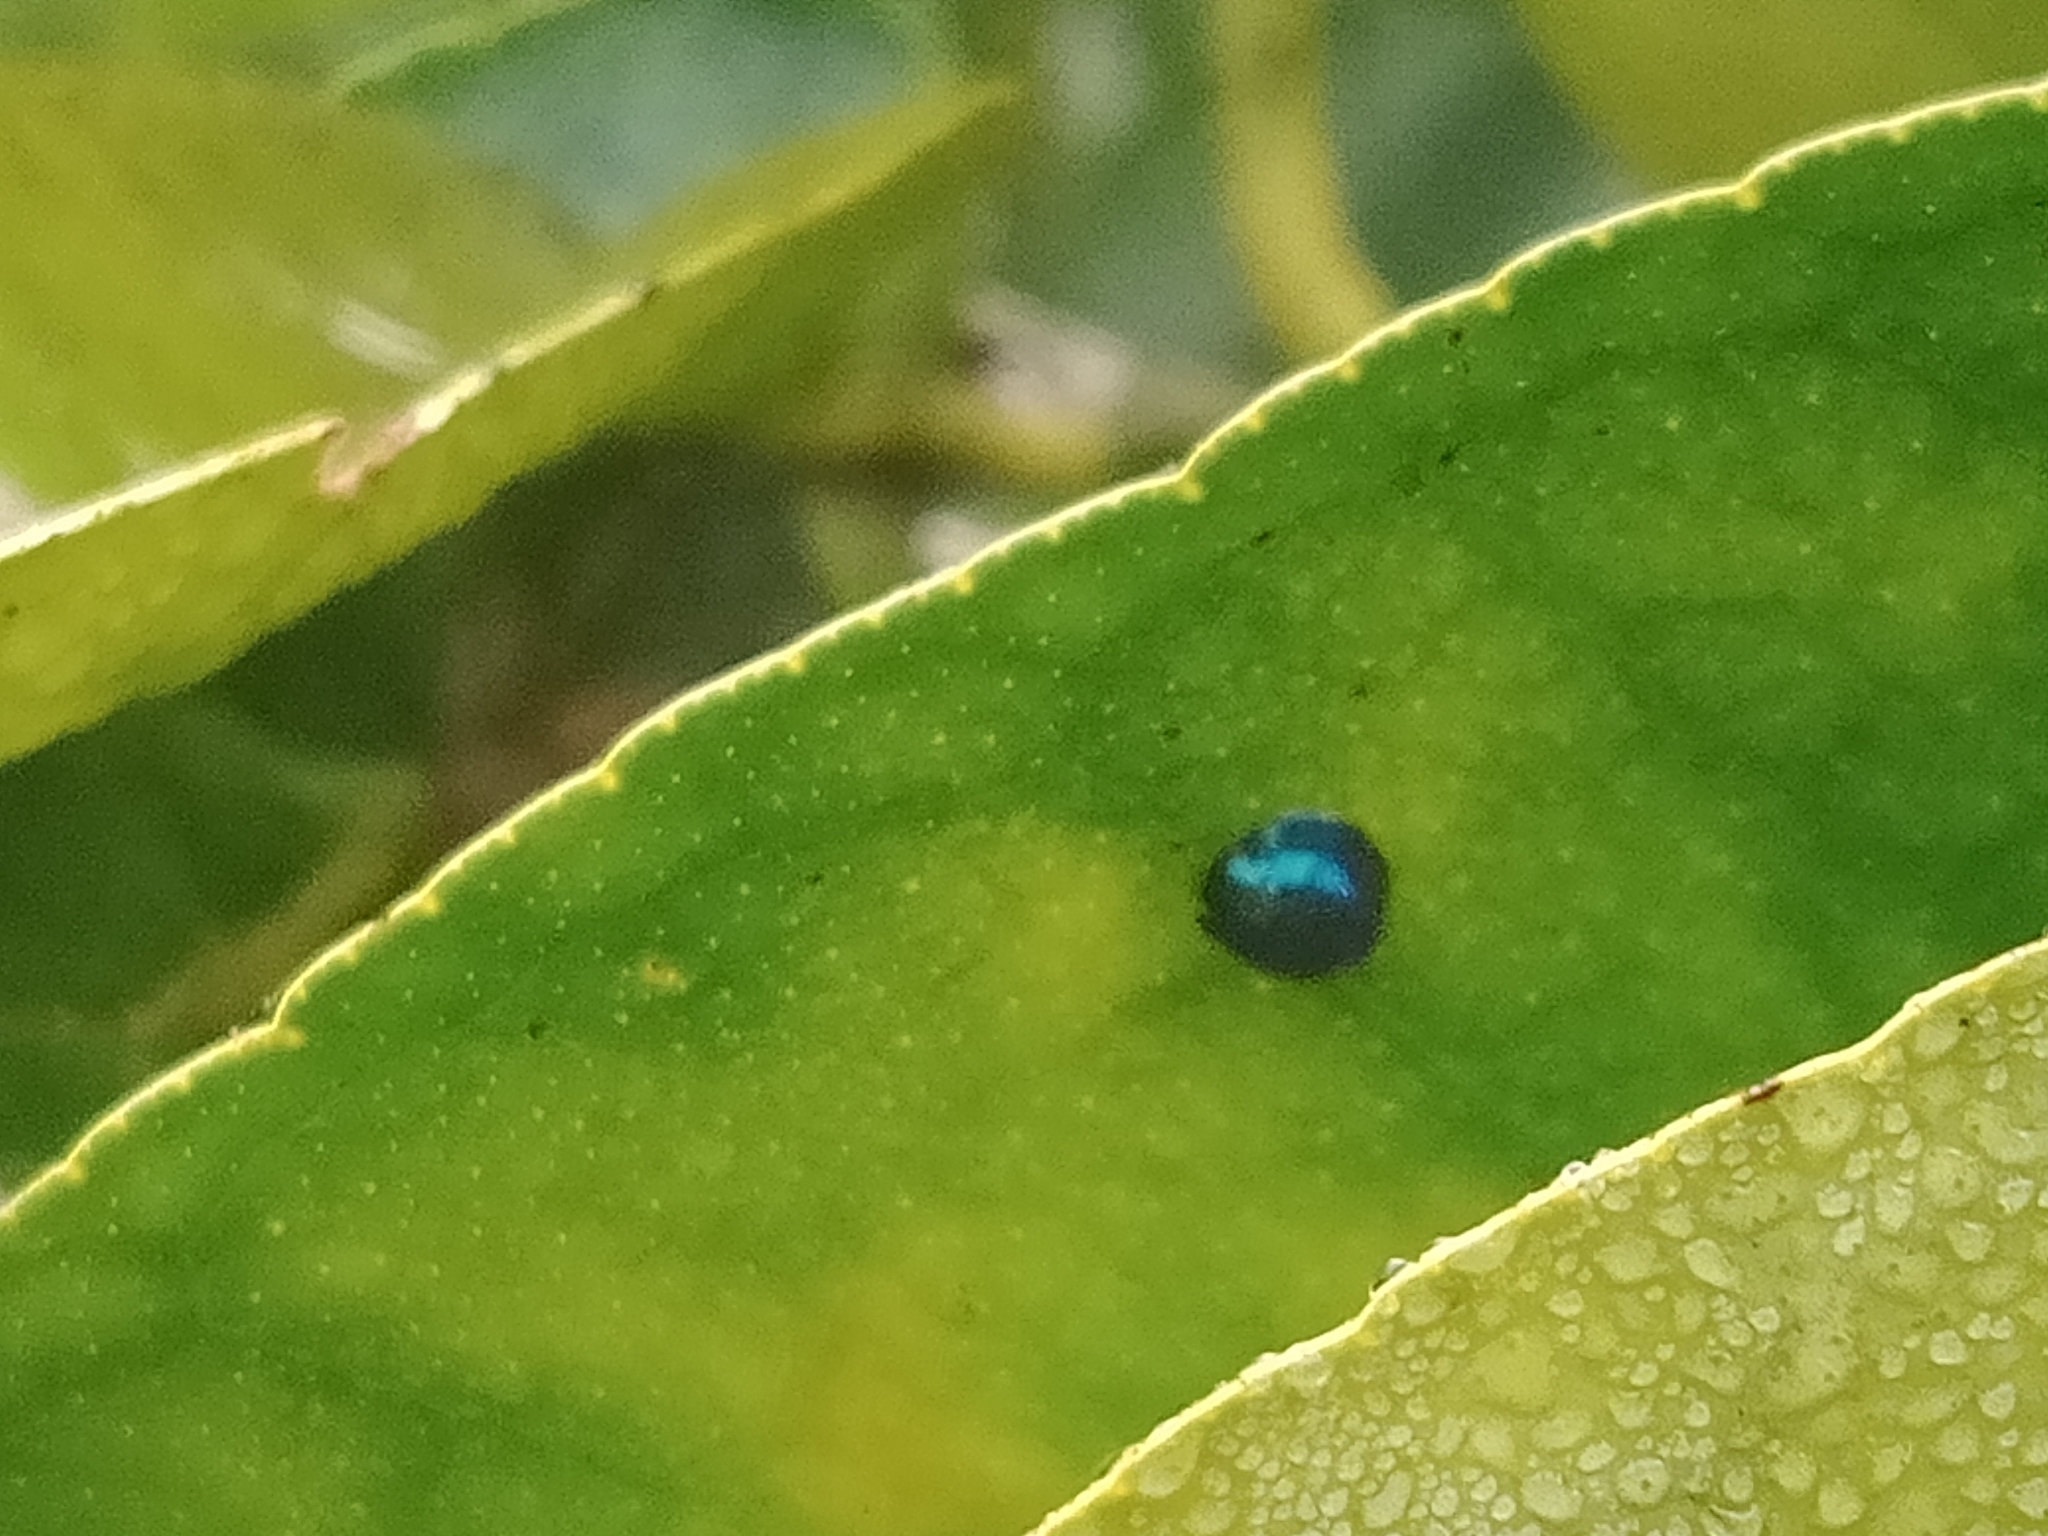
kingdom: Animalia
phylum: Arthropoda
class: Insecta
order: Coleoptera
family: Coccinellidae
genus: Halmus
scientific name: Halmus chalybeus
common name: Steel blue ladybird beetle
